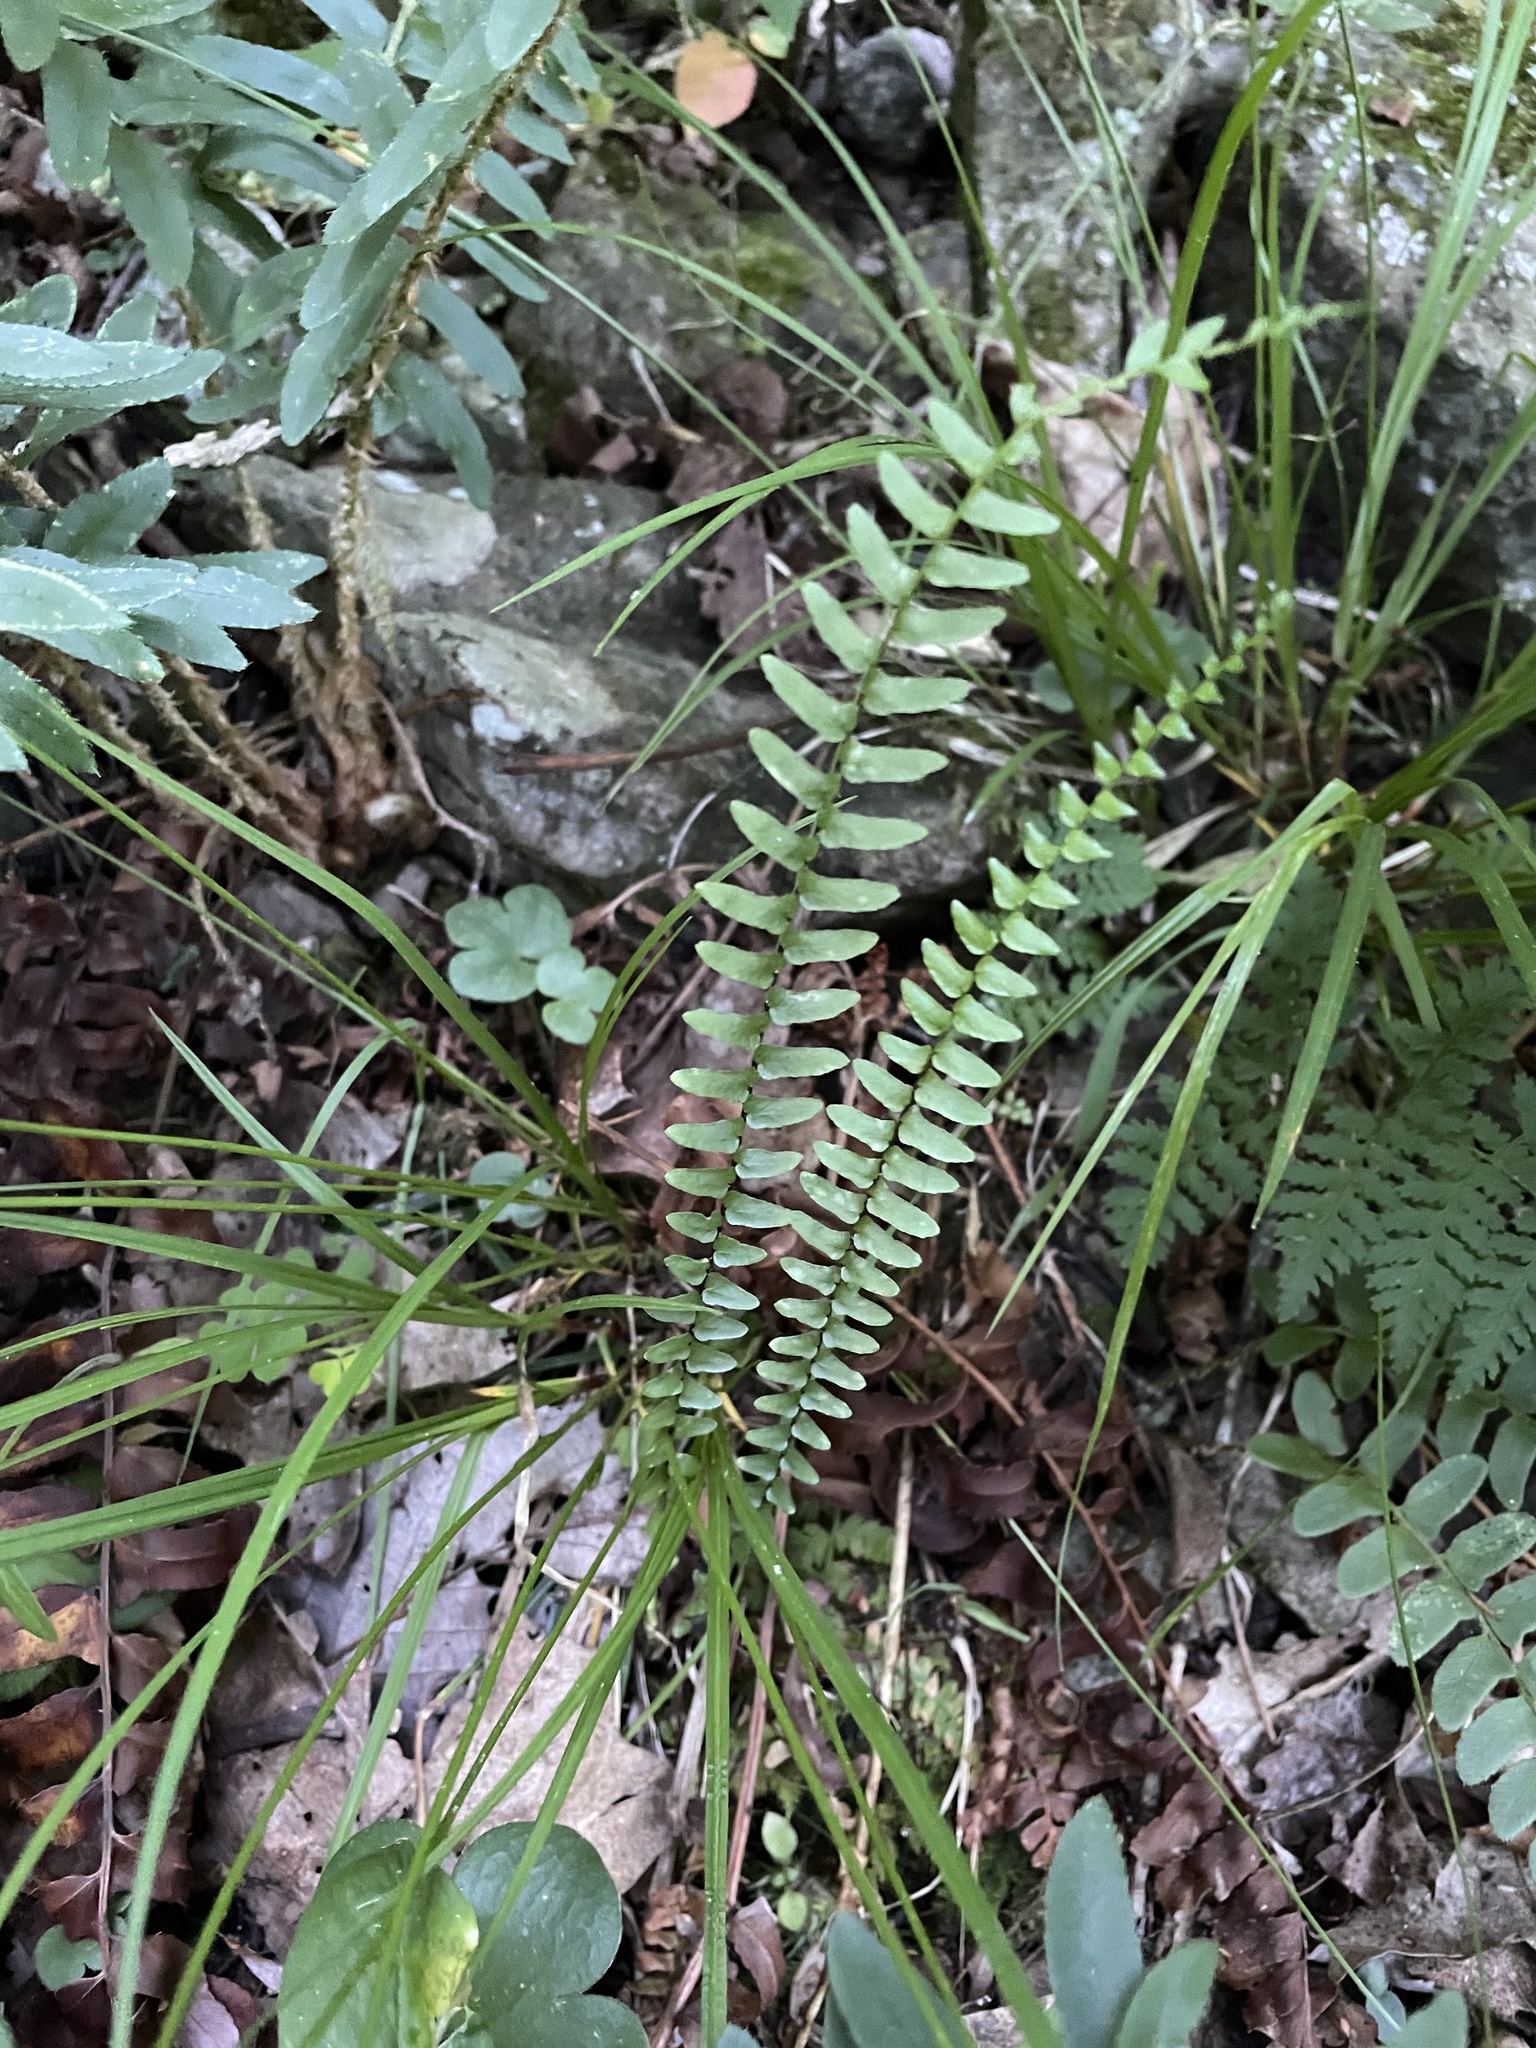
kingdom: Plantae
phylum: Tracheophyta
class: Polypodiopsida
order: Polypodiales
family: Aspleniaceae
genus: Asplenium
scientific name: Asplenium platyneuron
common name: Ebony spleenwort
